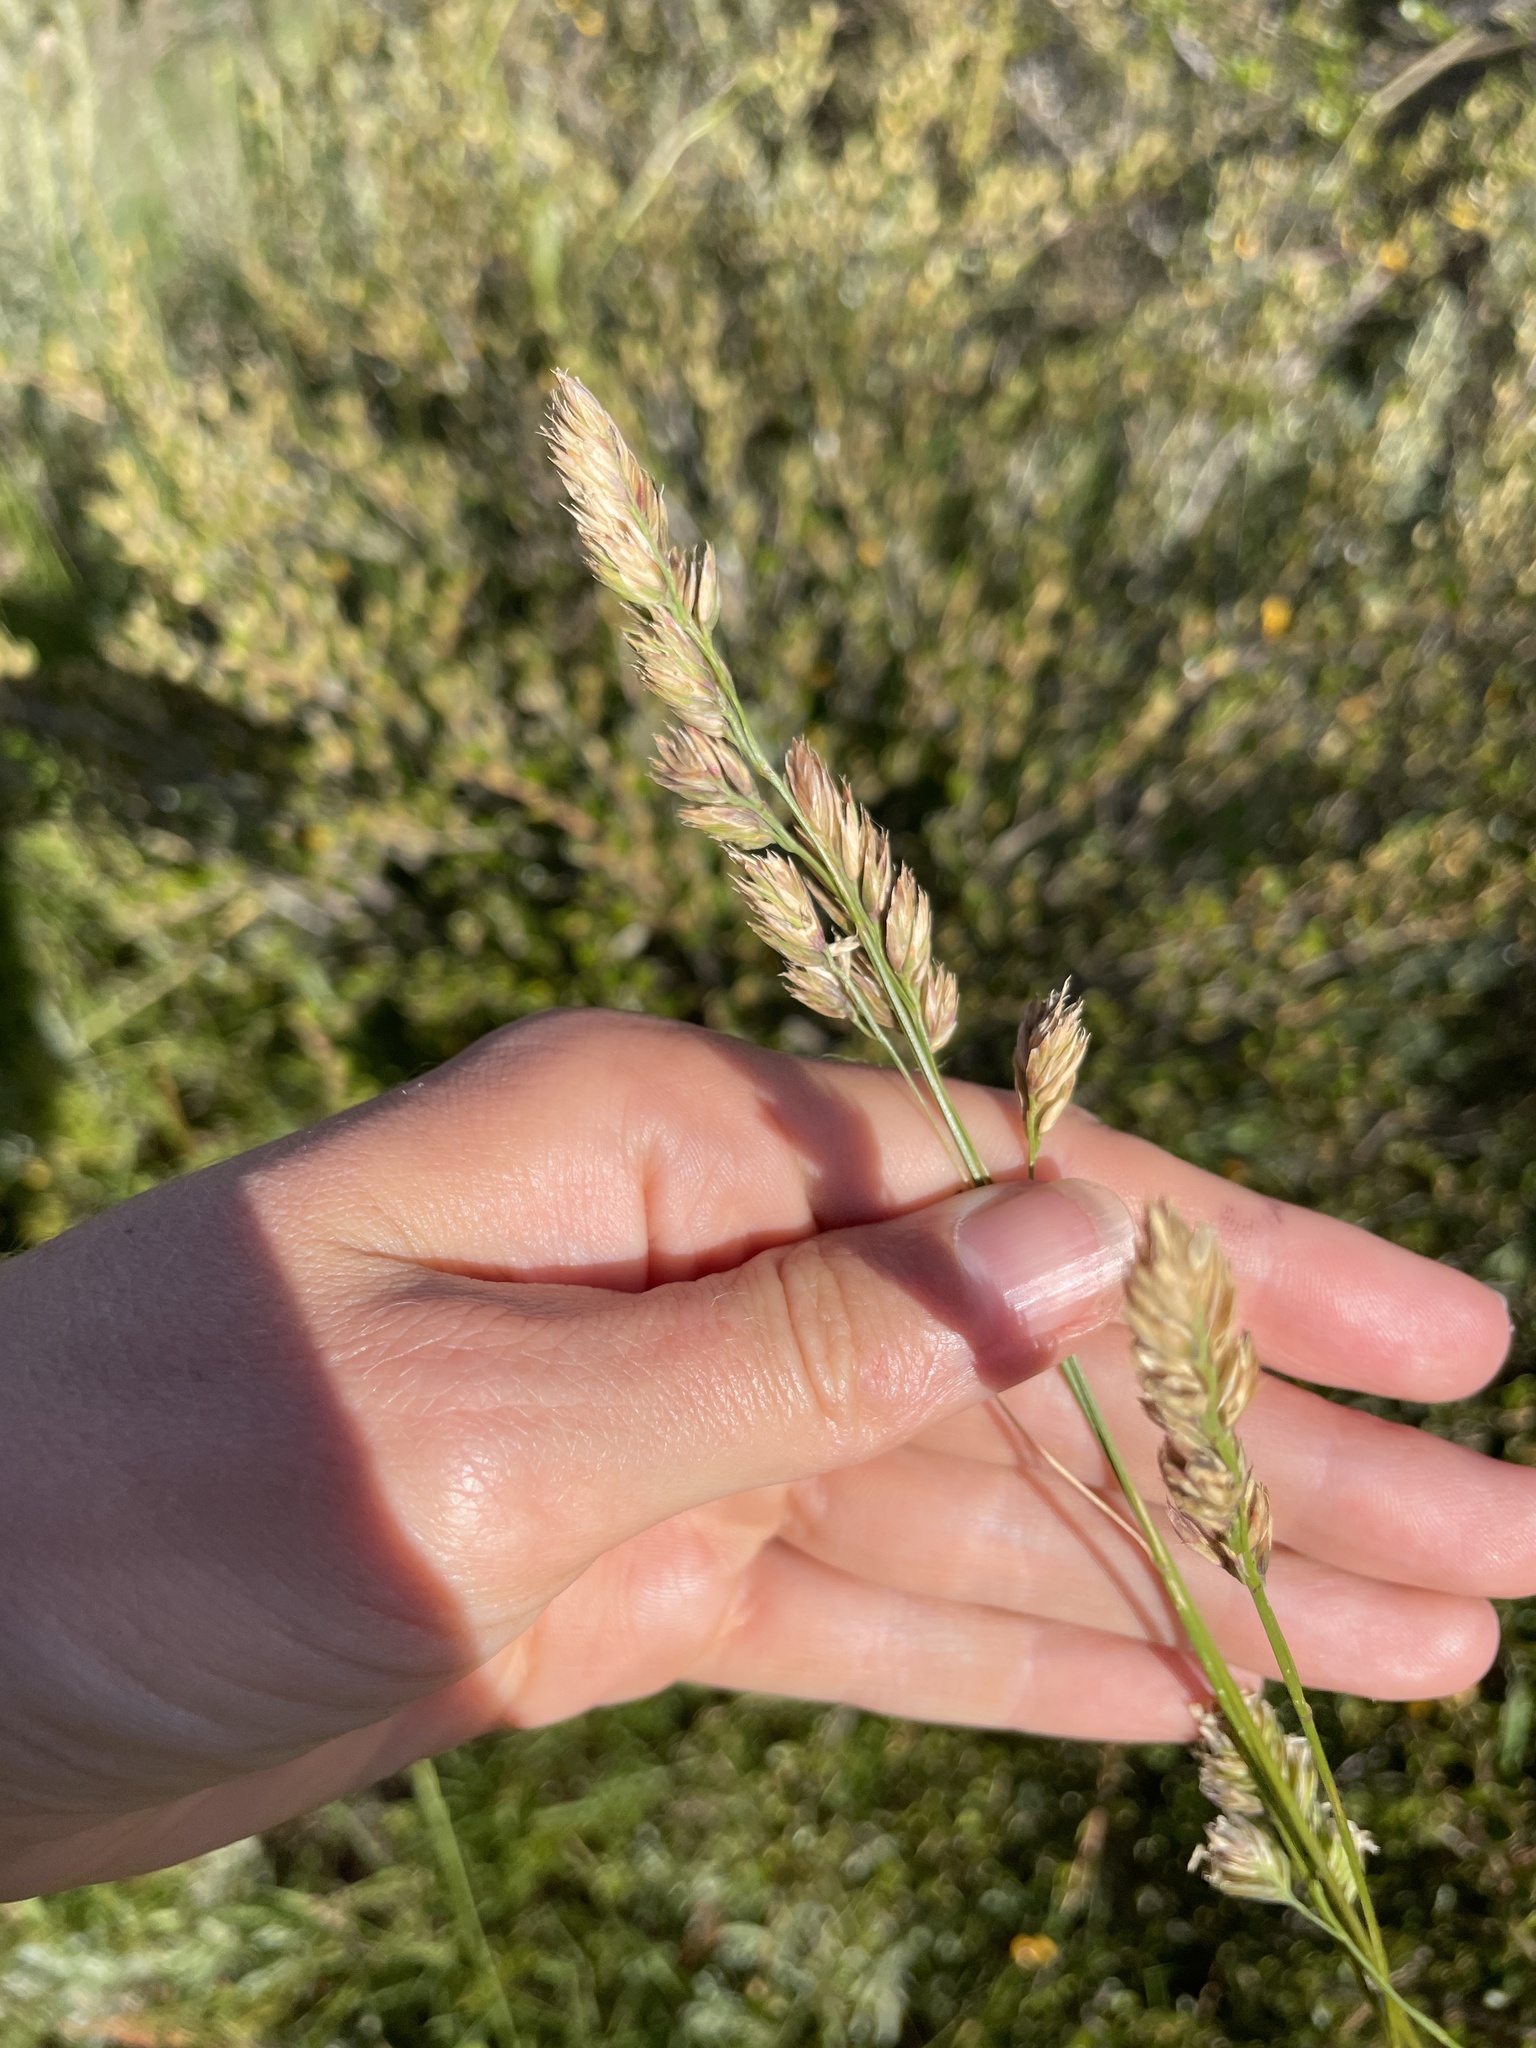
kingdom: Plantae
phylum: Tracheophyta
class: Liliopsida
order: Poales
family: Poaceae
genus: Dactylis
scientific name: Dactylis glomerata
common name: Orchardgrass
